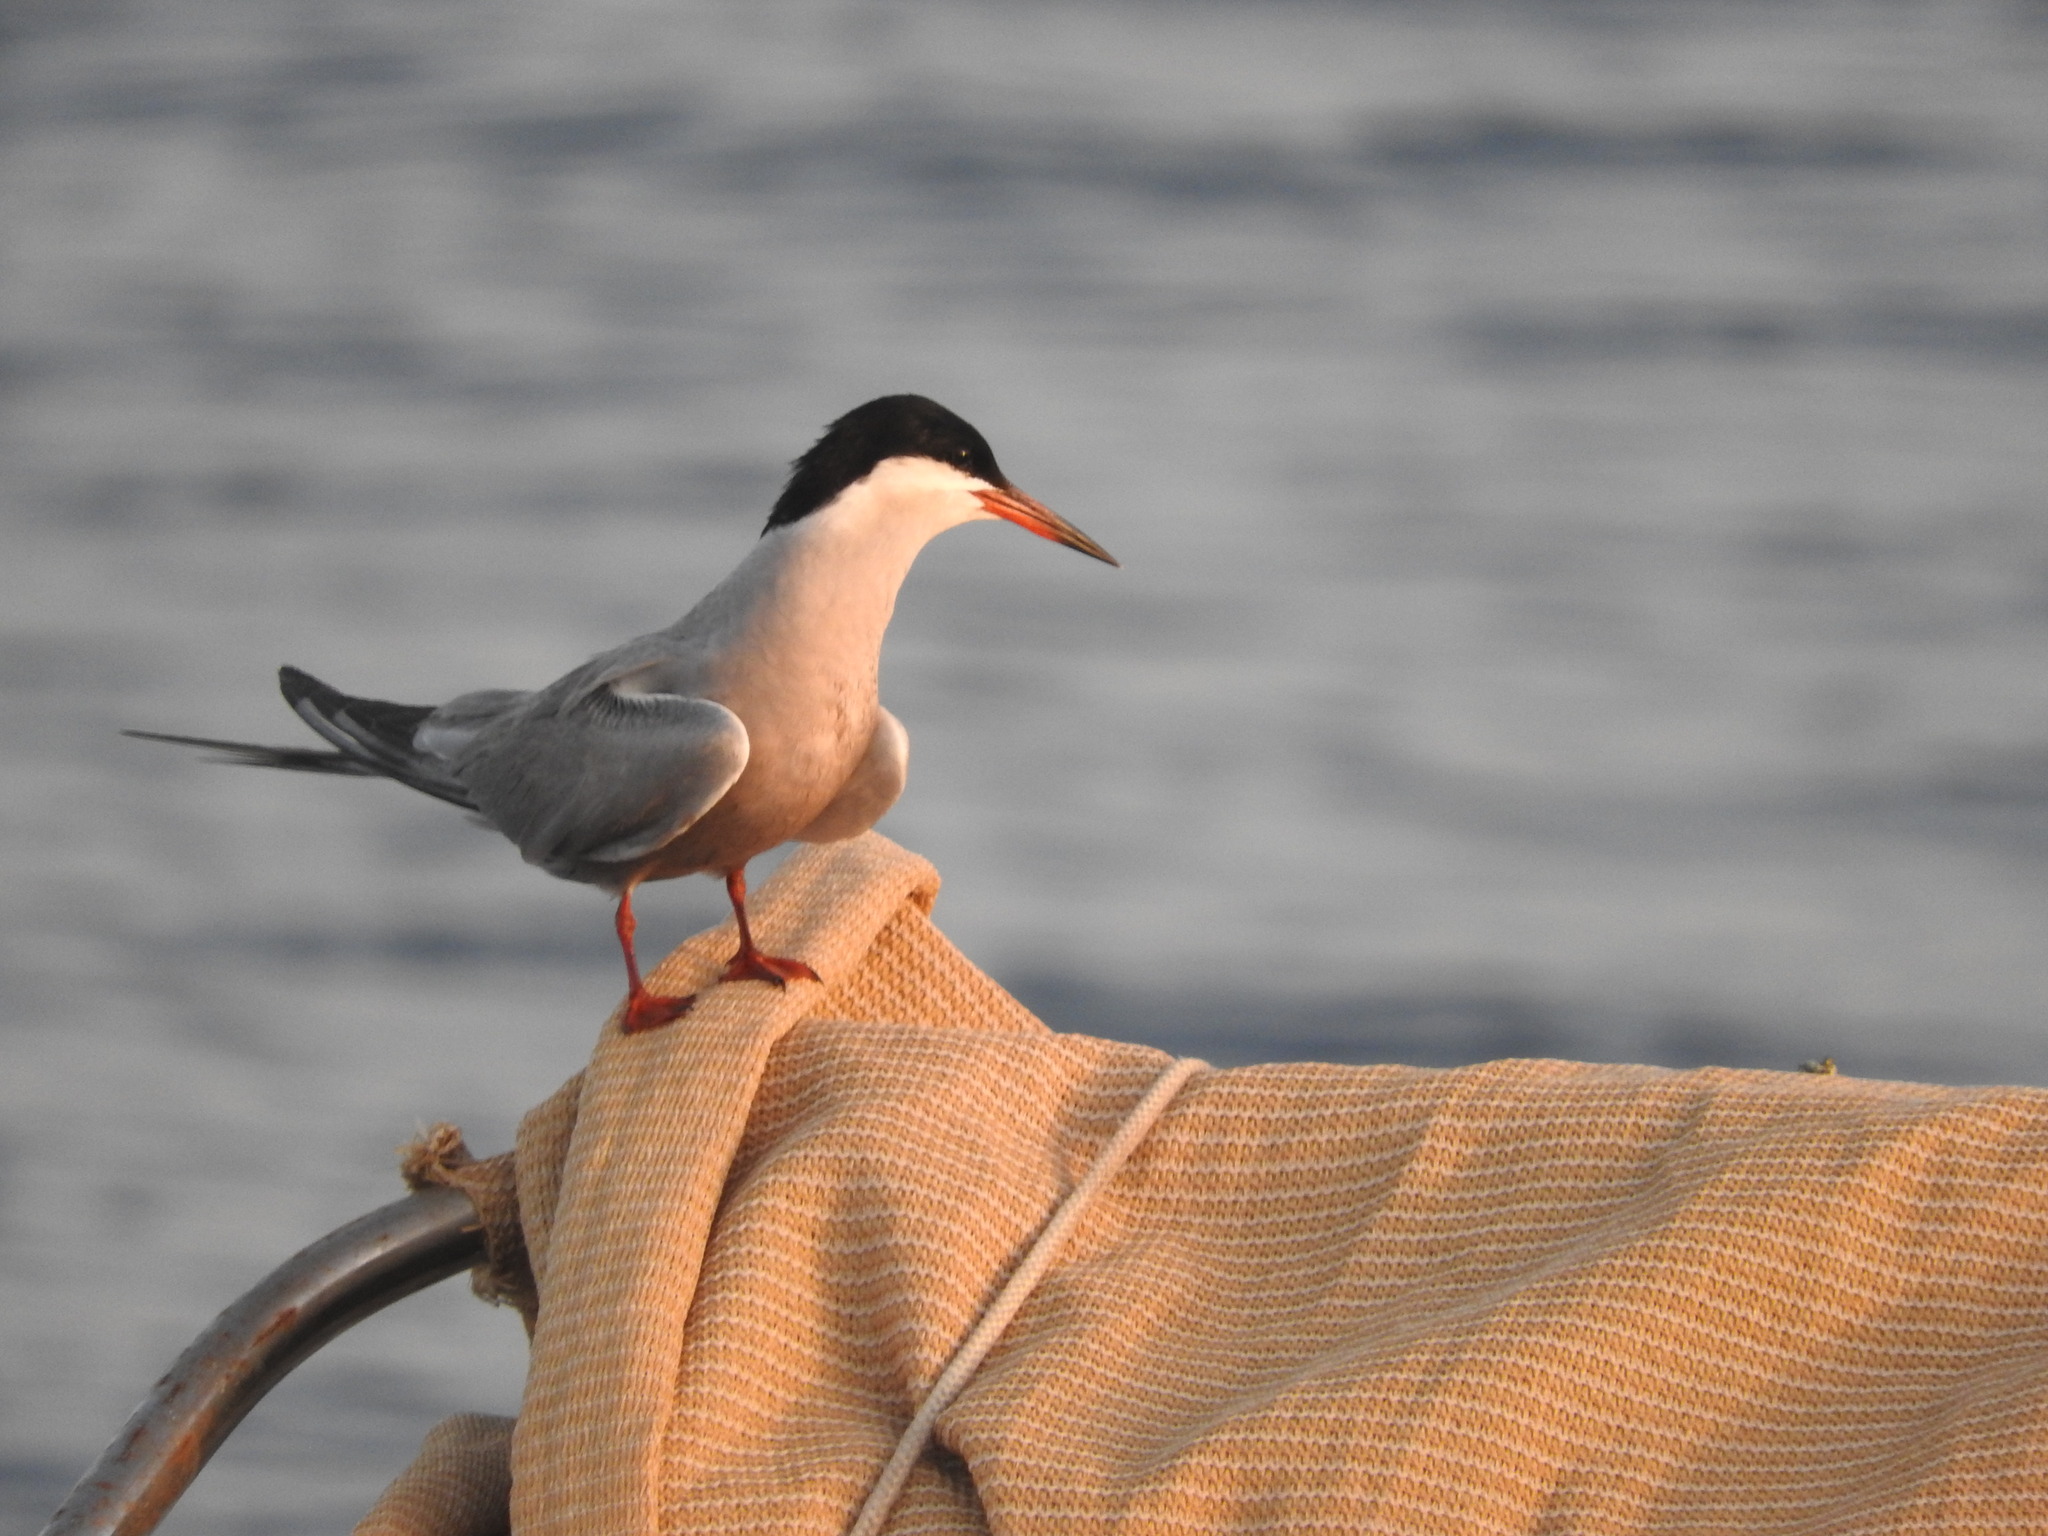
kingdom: Animalia
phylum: Chordata
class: Aves
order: Charadriiformes
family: Laridae
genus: Sterna
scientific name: Sterna repressa
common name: White-cheeked tern
